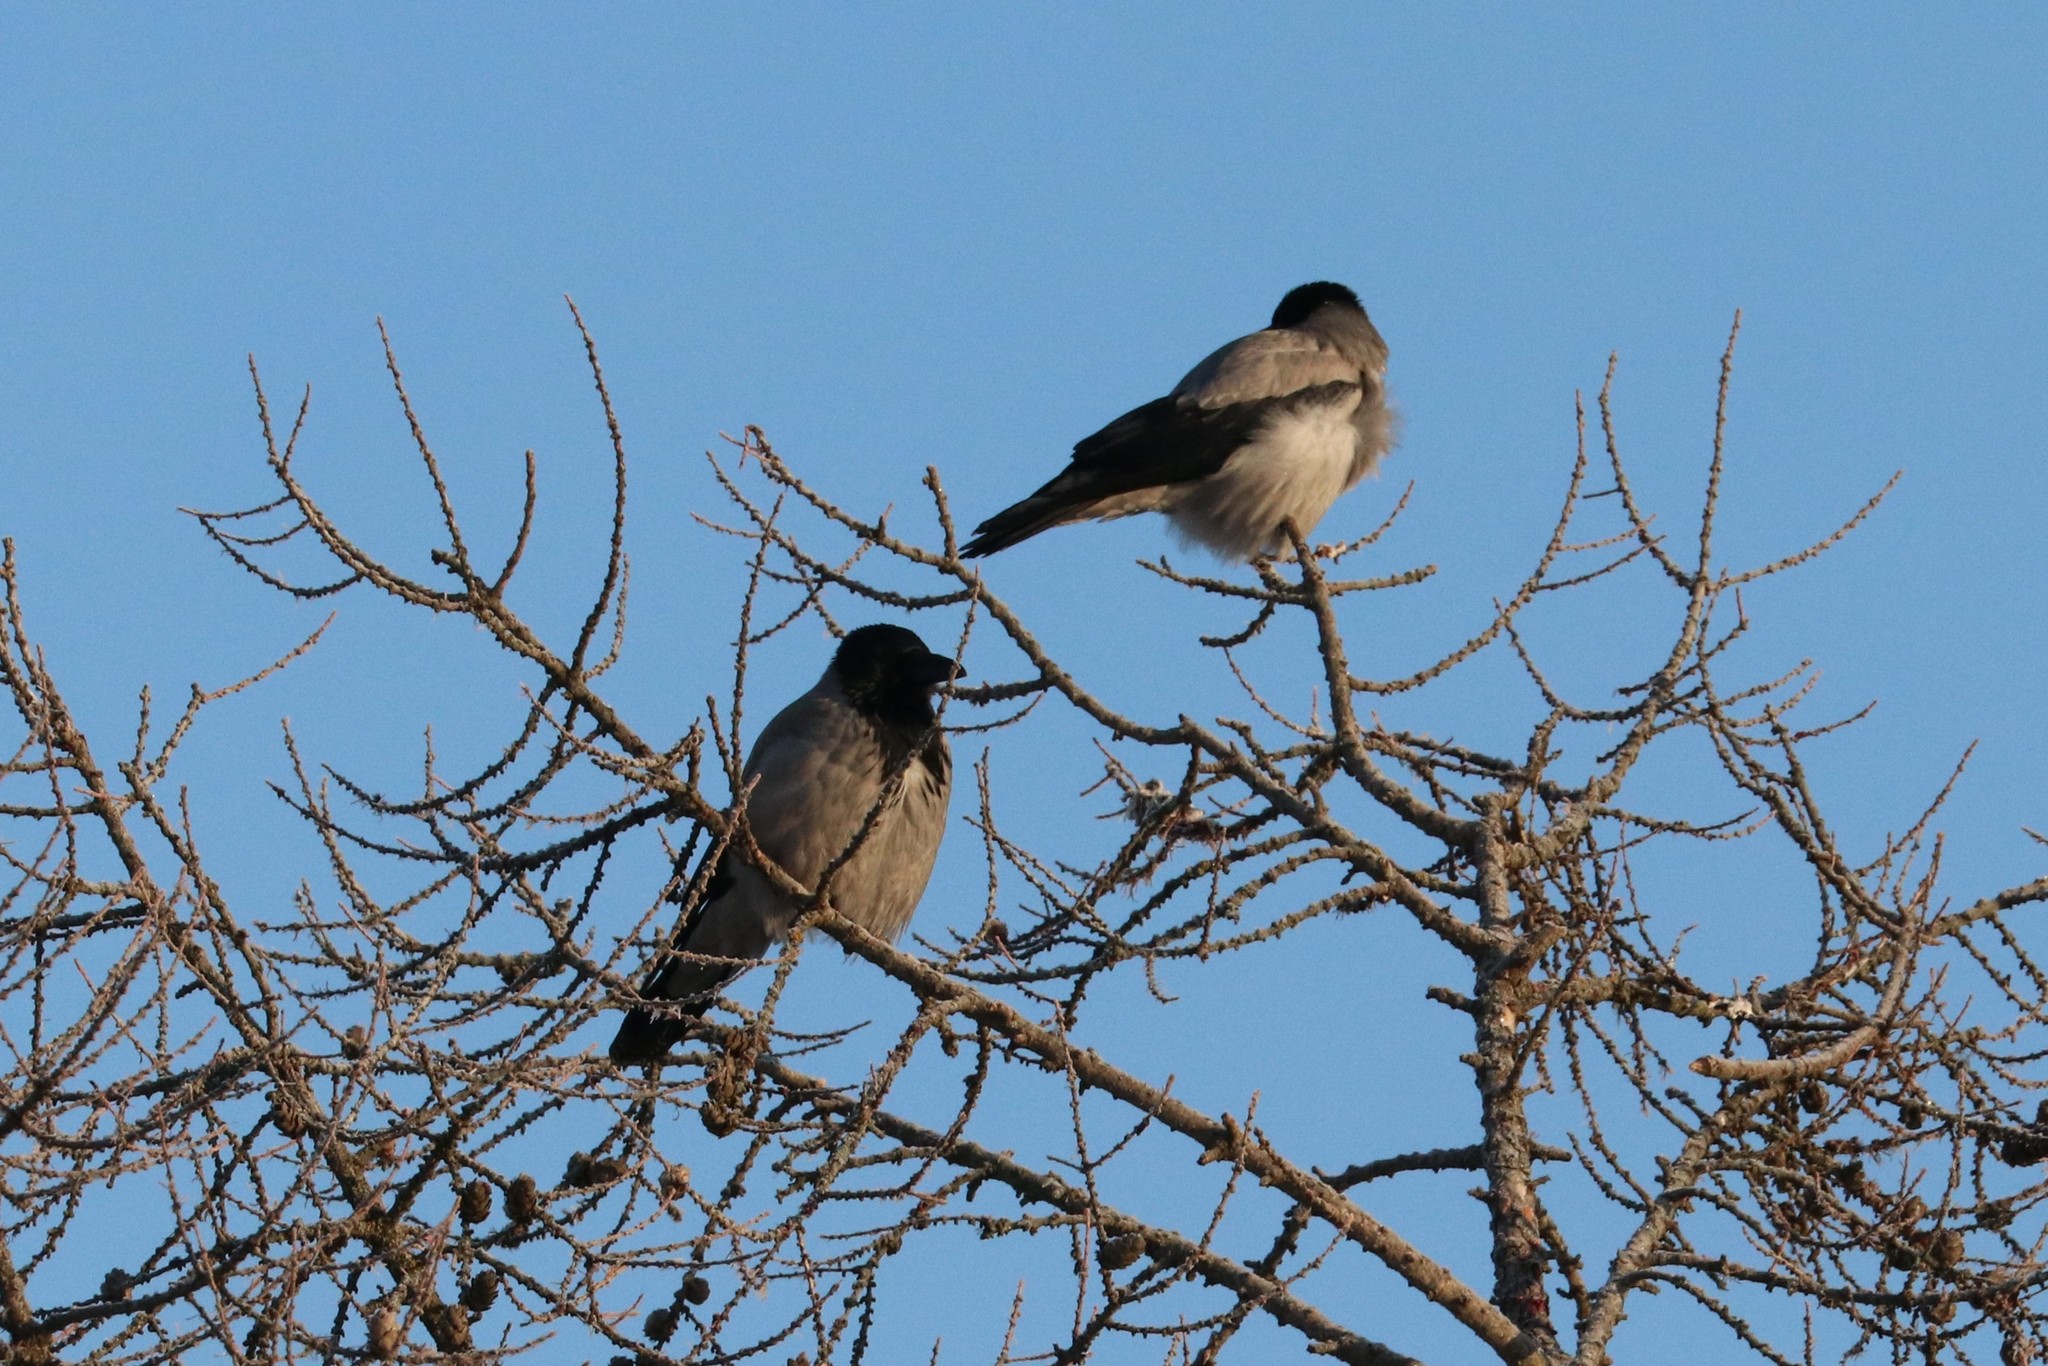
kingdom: Animalia
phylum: Chordata
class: Aves
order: Passeriformes
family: Corvidae
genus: Corvus
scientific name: Corvus cornix
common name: Hooded crow
